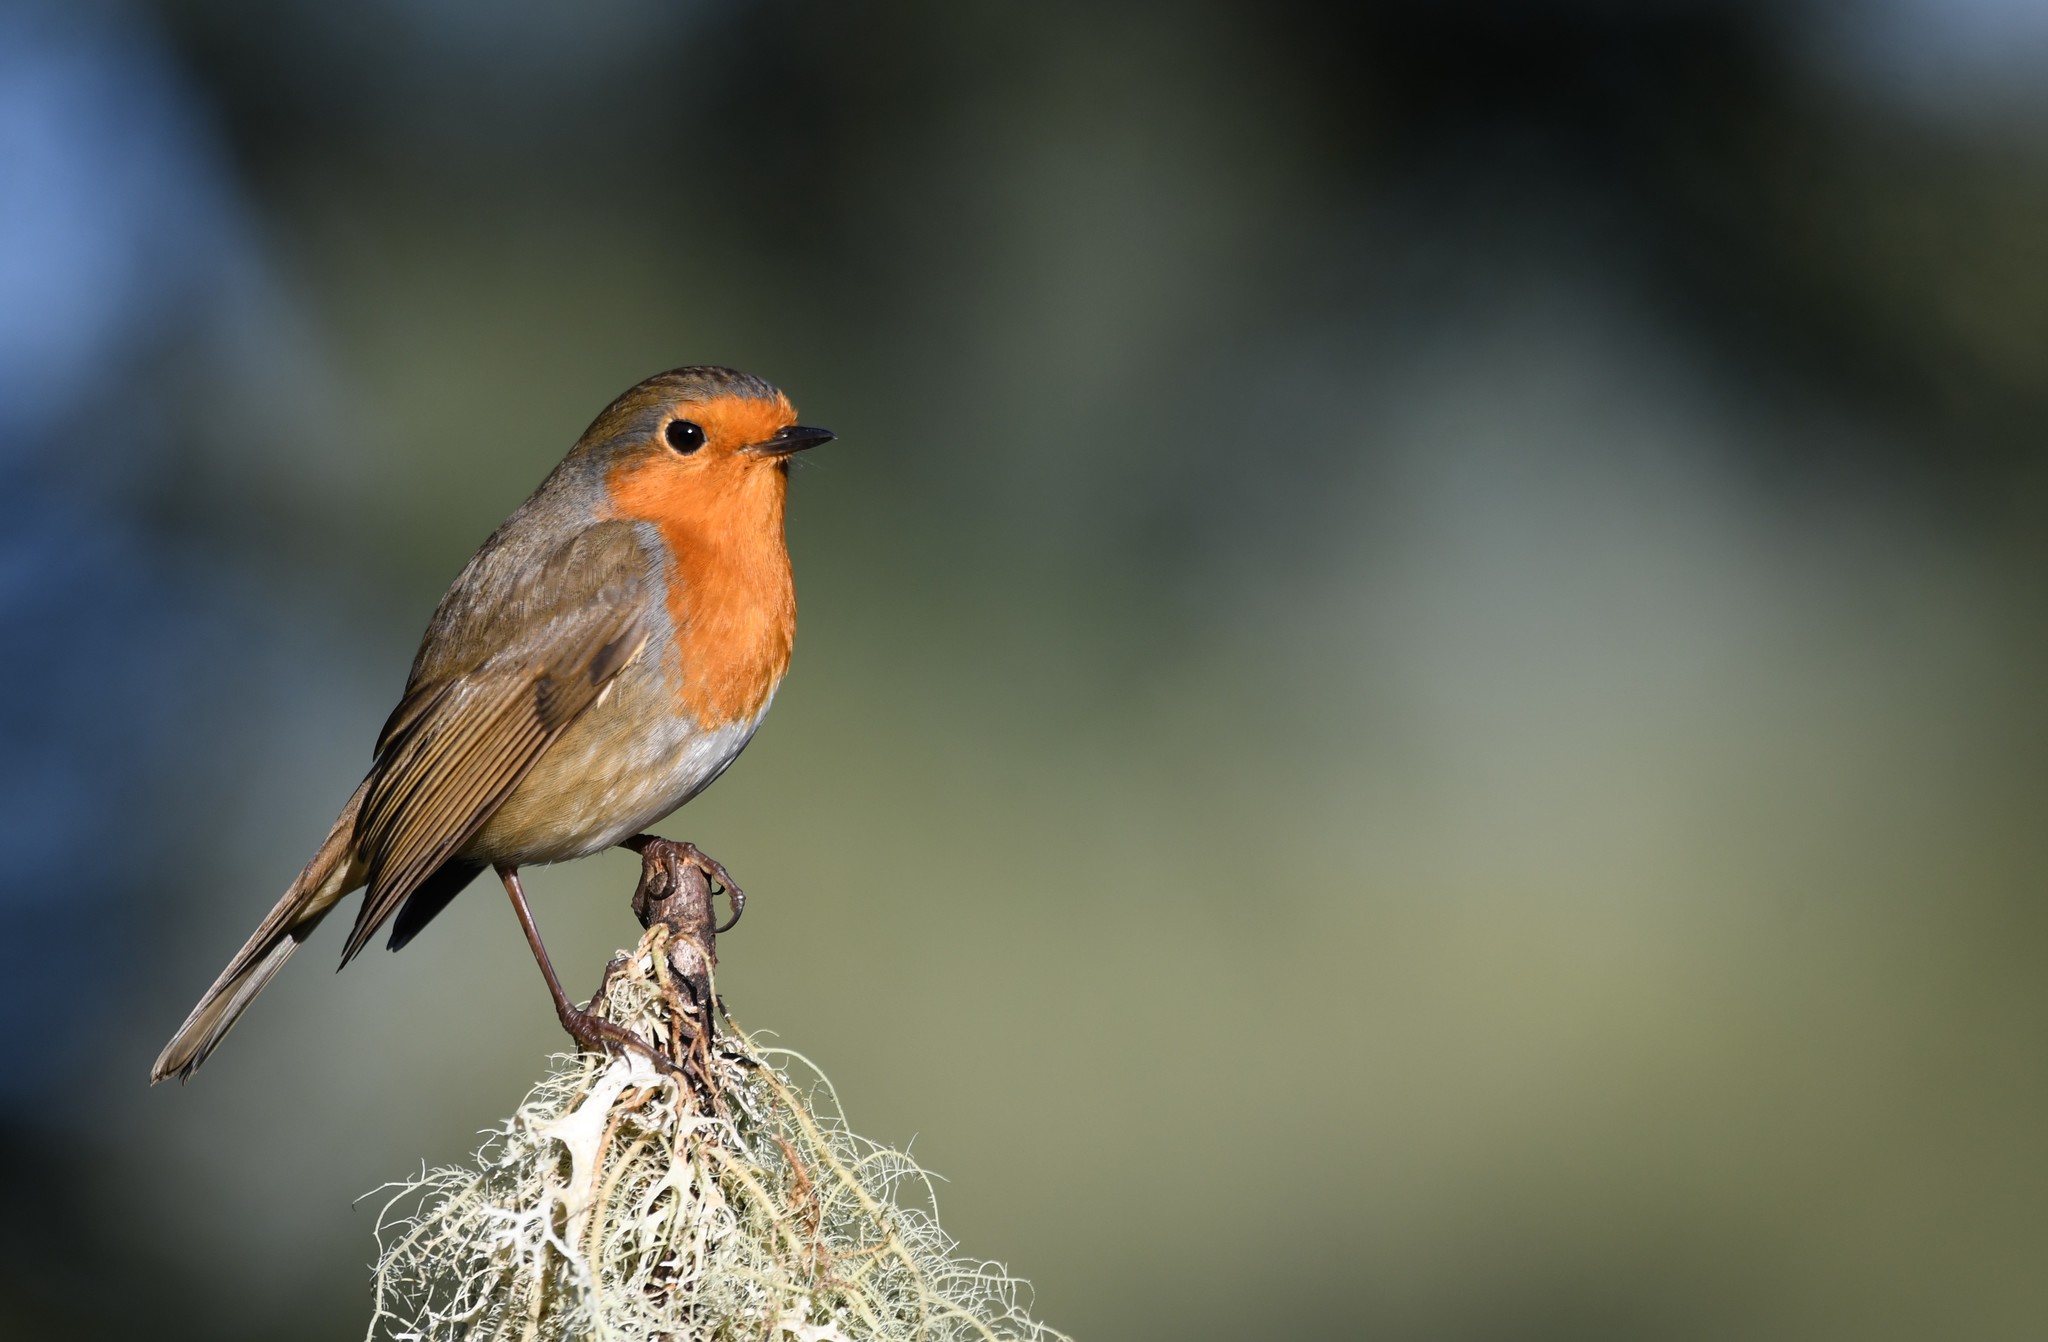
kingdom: Animalia
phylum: Chordata
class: Aves
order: Passeriformes
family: Muscicapidae
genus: Erithacus
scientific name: Erithacus rubecula
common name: European robin
